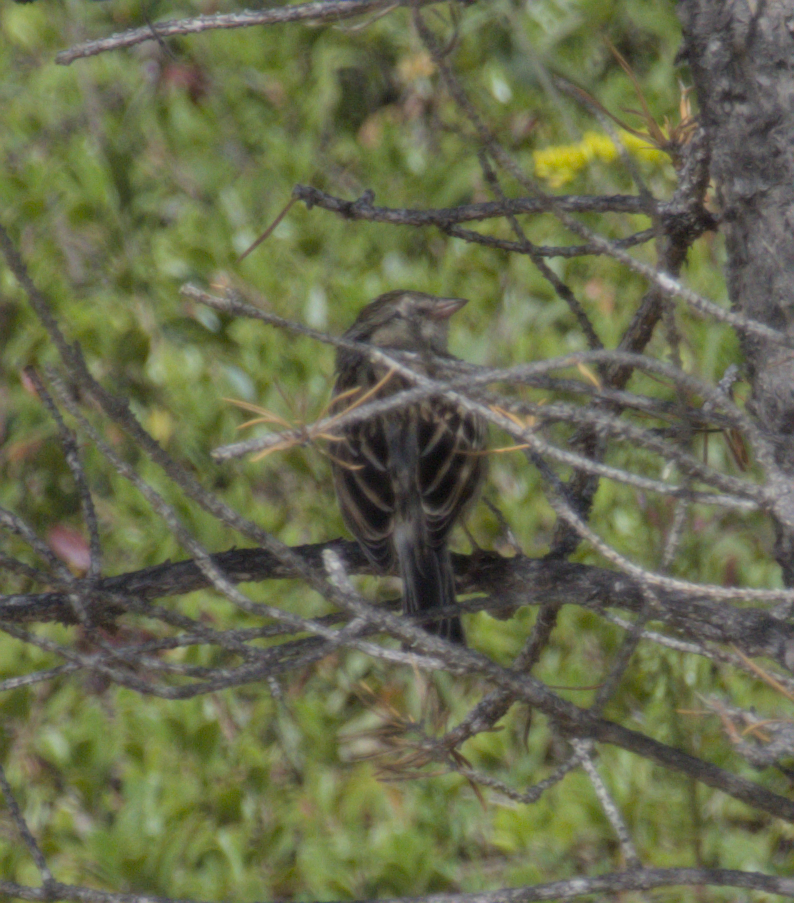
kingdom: Animalia
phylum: Chordata
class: Aves
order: Passeriformes
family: Passerellidae
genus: Spizella
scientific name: Spizella passerina
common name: Chipping sparrow
